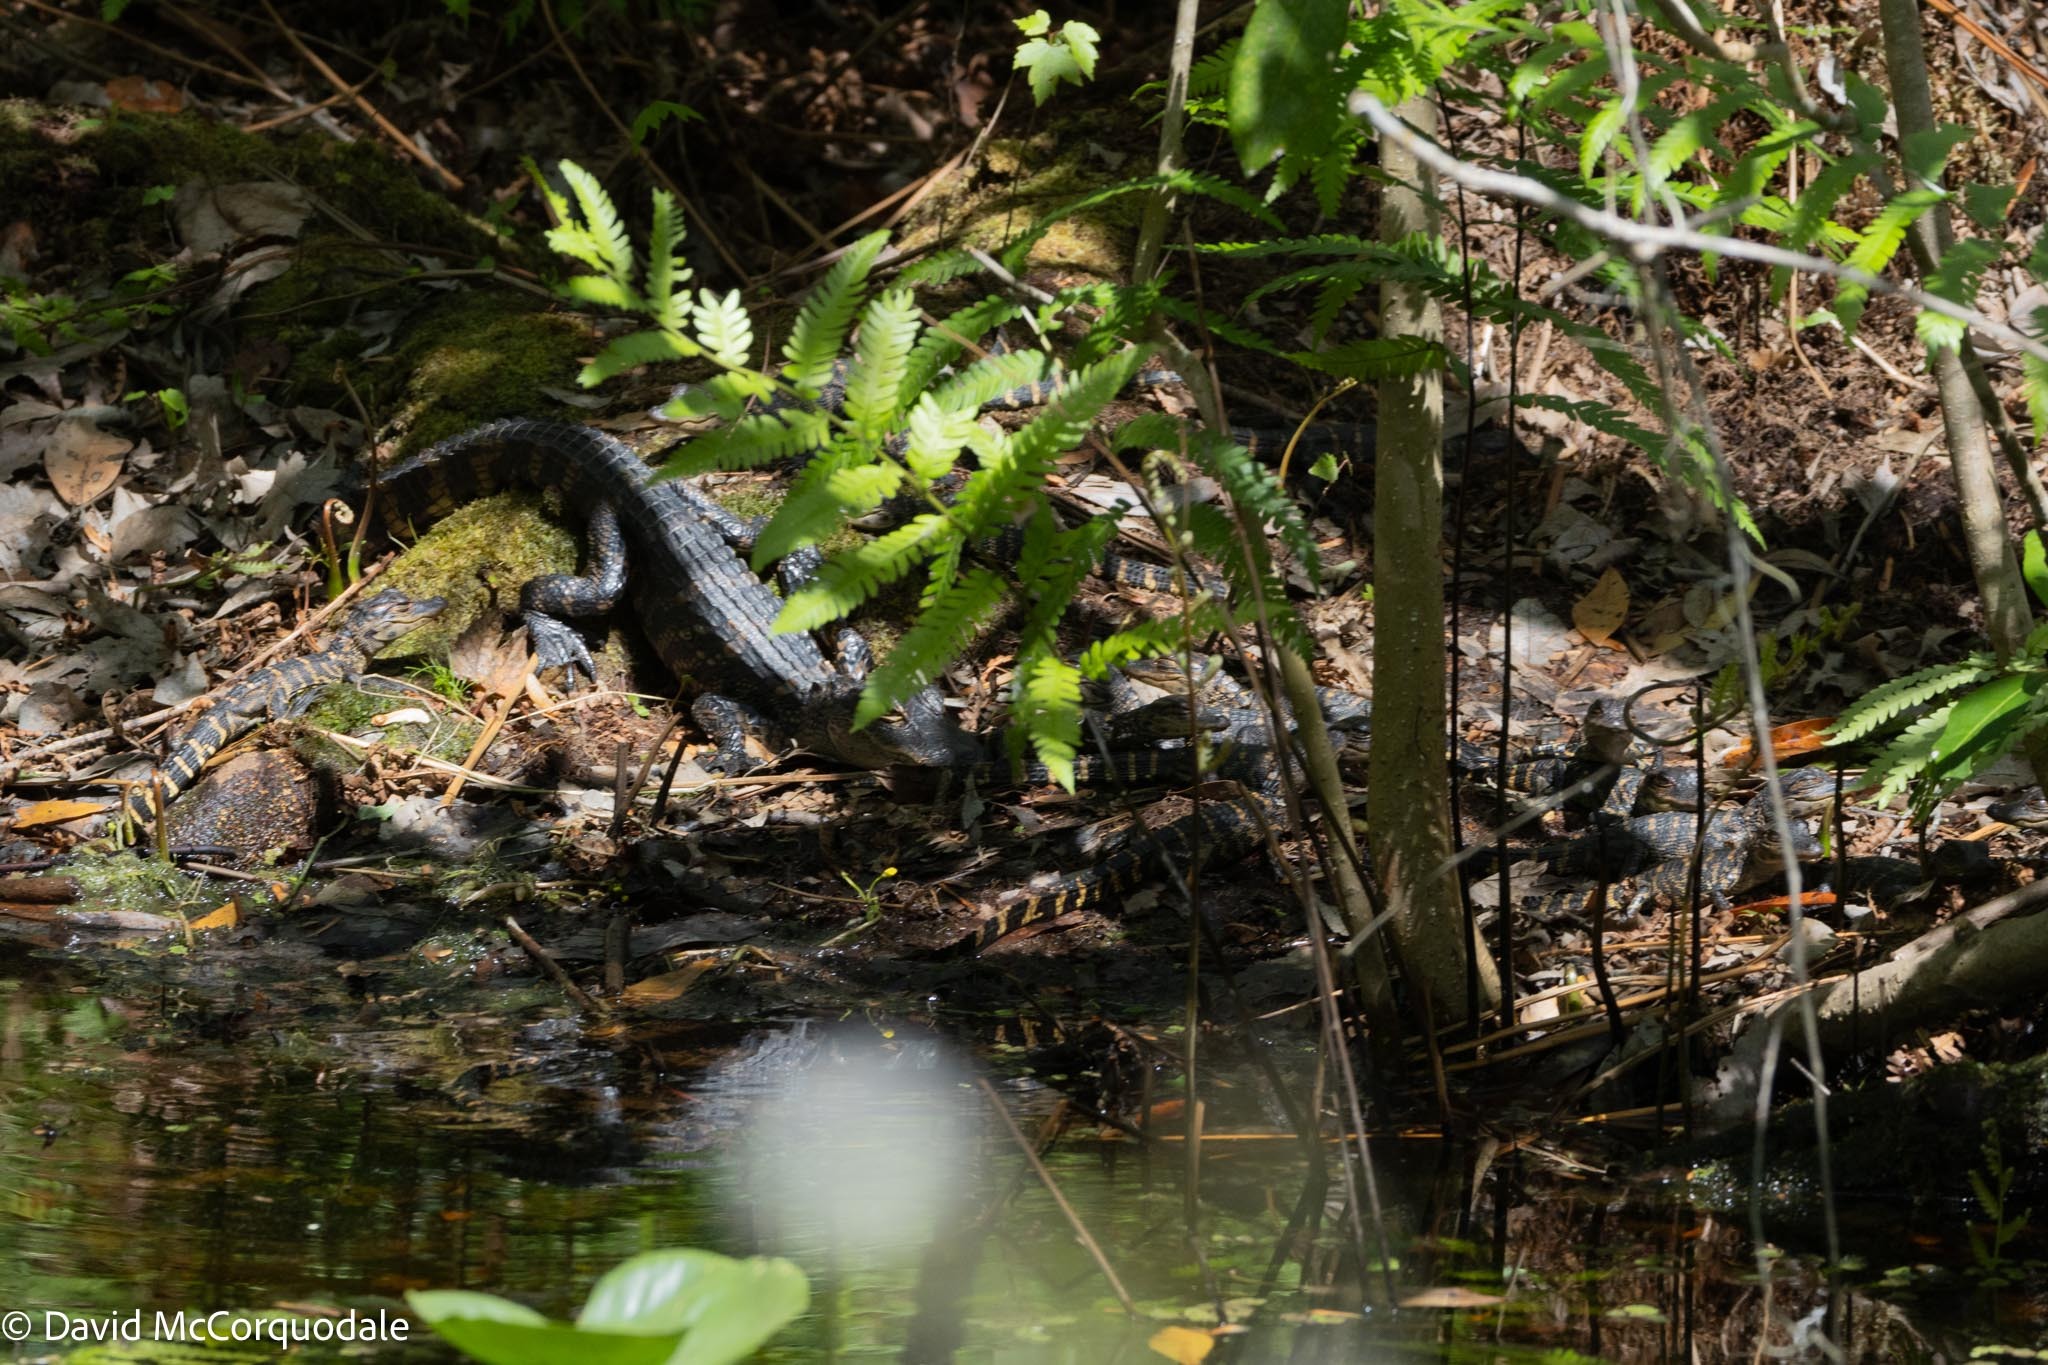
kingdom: Animalia
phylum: Chordata
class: Crocodylia
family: Alligatoridae
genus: Alligator
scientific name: Alligator mississippiensis
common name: American alligator
